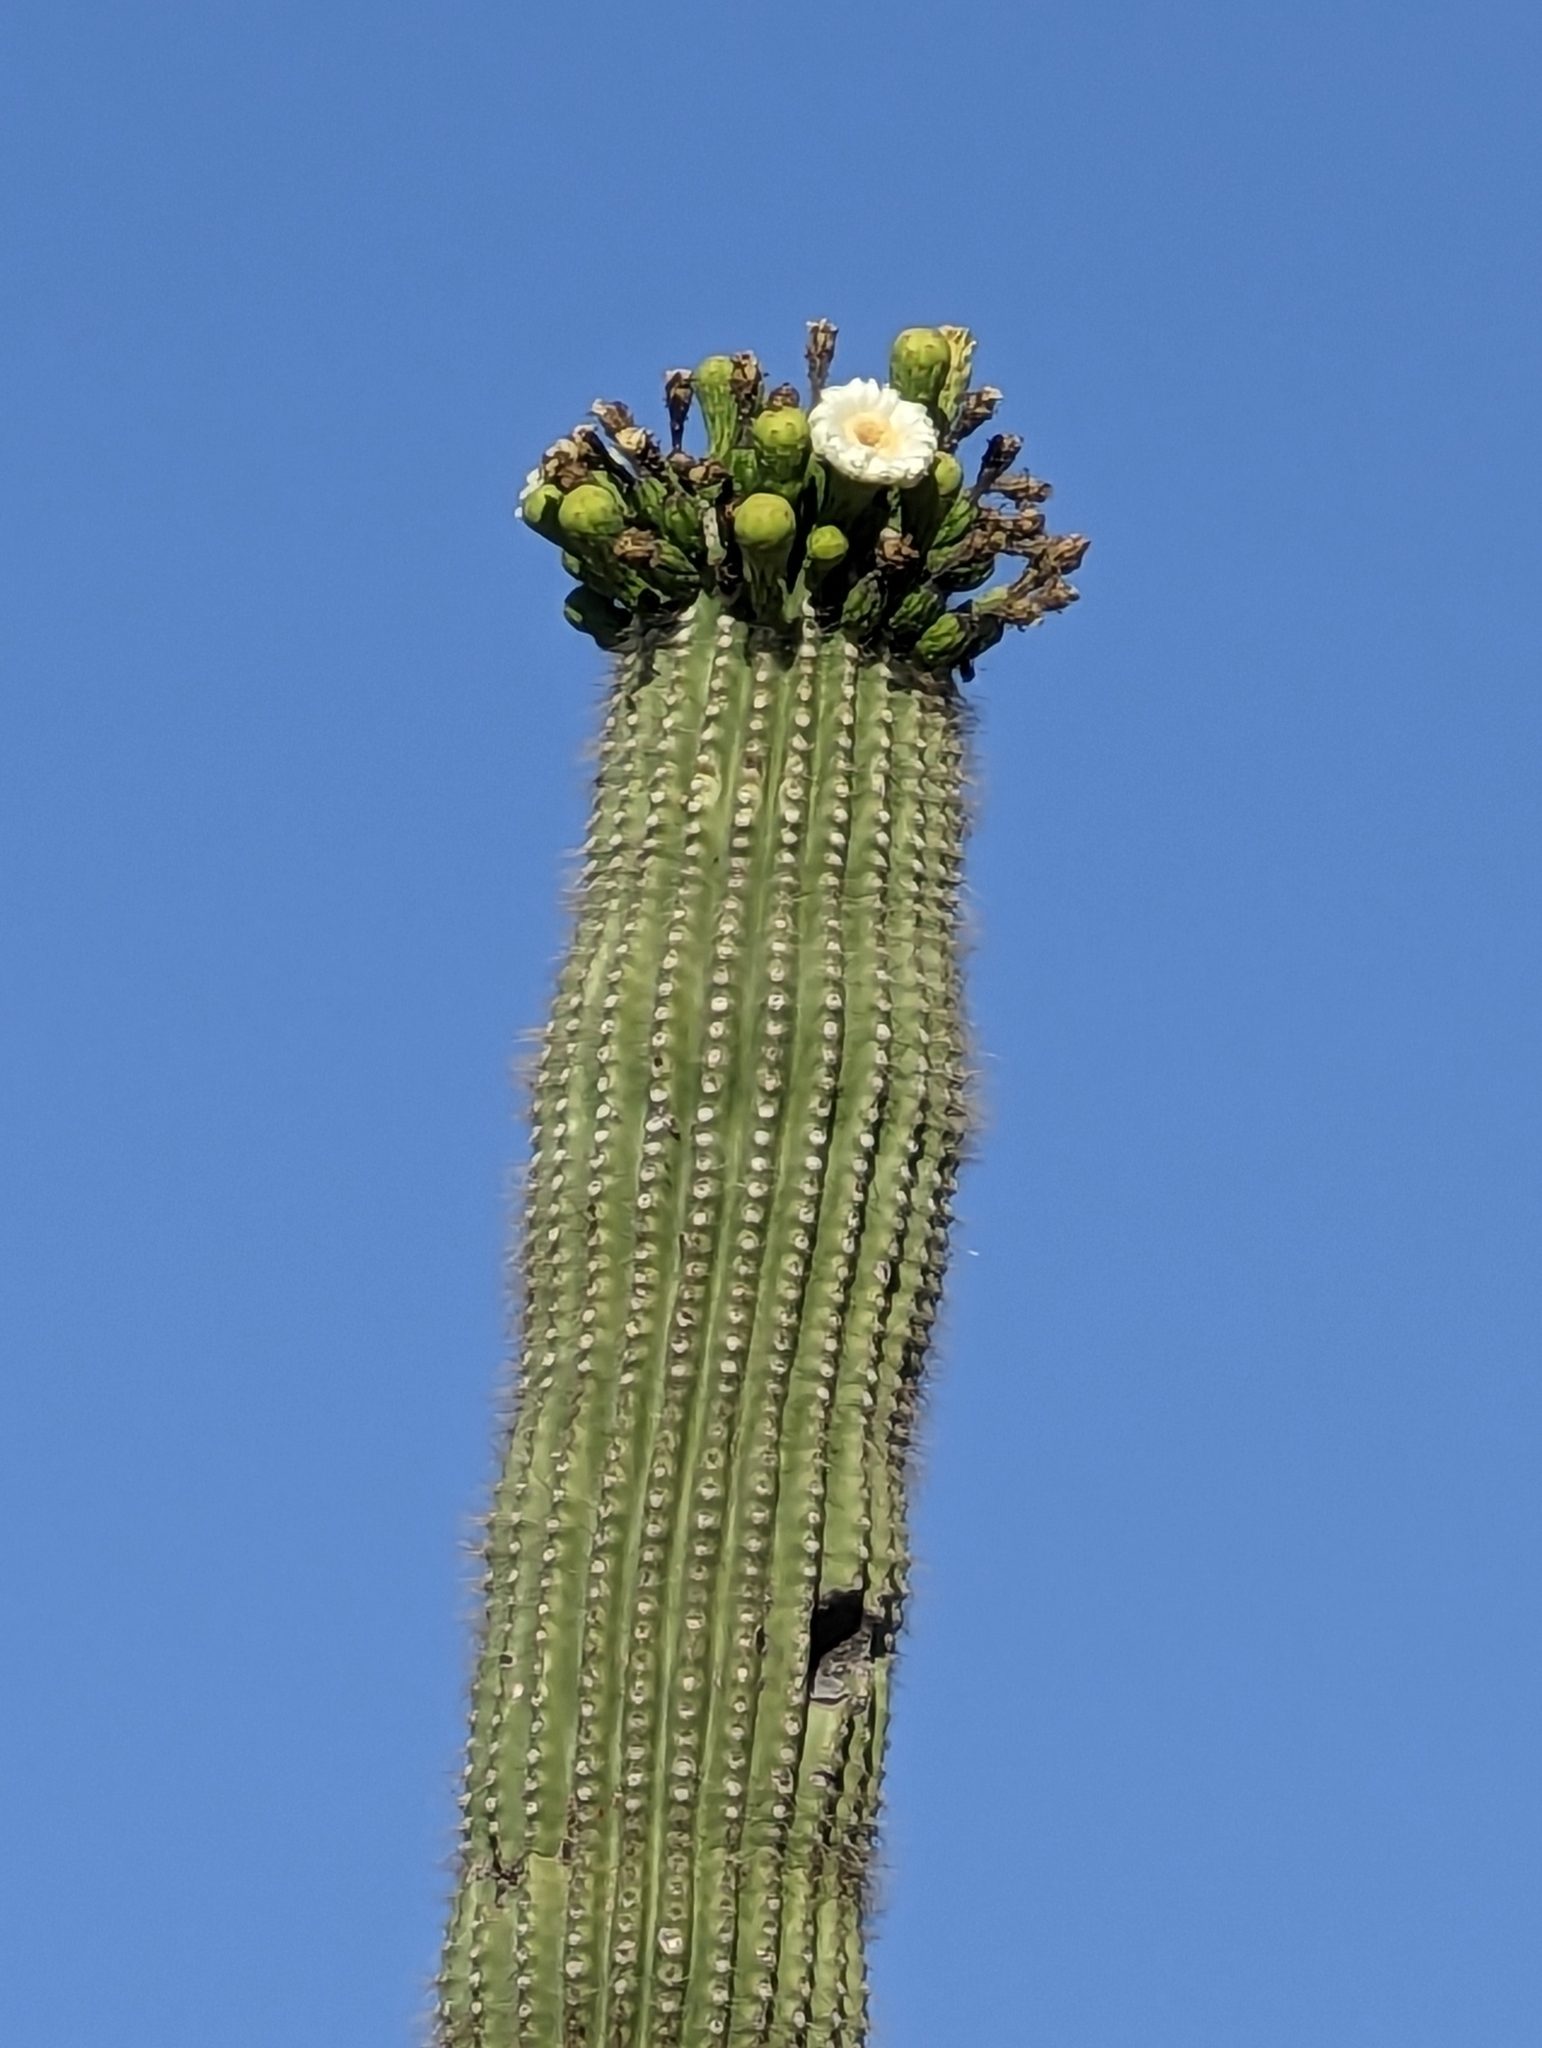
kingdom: Plantae
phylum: Tracheophyta
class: Magnoliopsida
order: Caryophyllales
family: Cactaceae
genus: Carnegiea
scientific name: Carnegiea gigantea
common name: Saguaro
